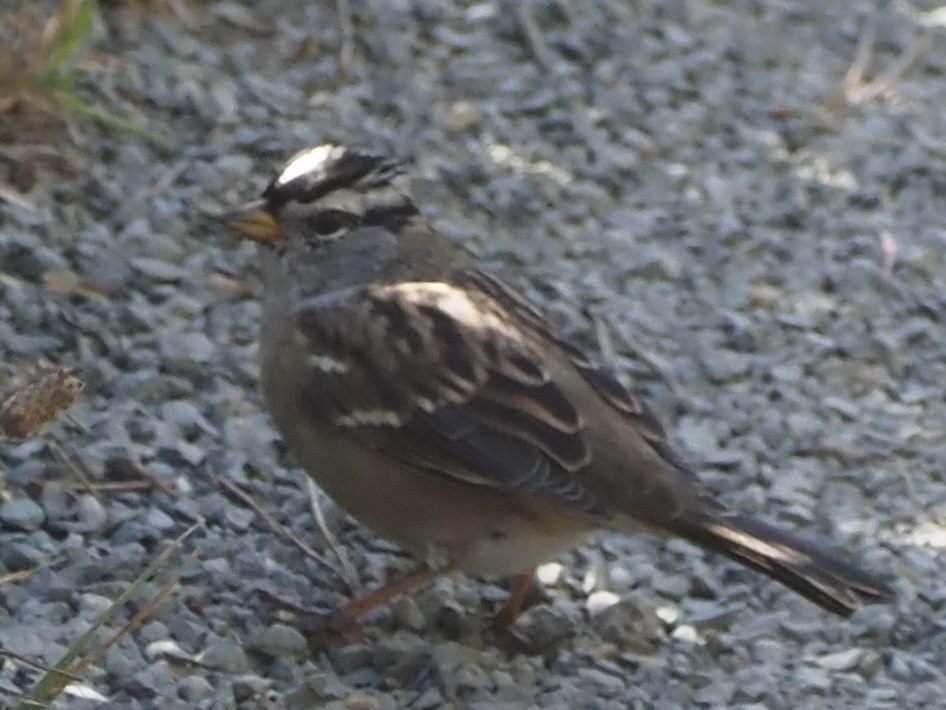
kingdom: Animalia
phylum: Chordata
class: Aves
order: Passeriformes
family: Passerellidae
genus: Zonotrichia
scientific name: Zonotrichia leucophrys
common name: White-crowned sparrow
